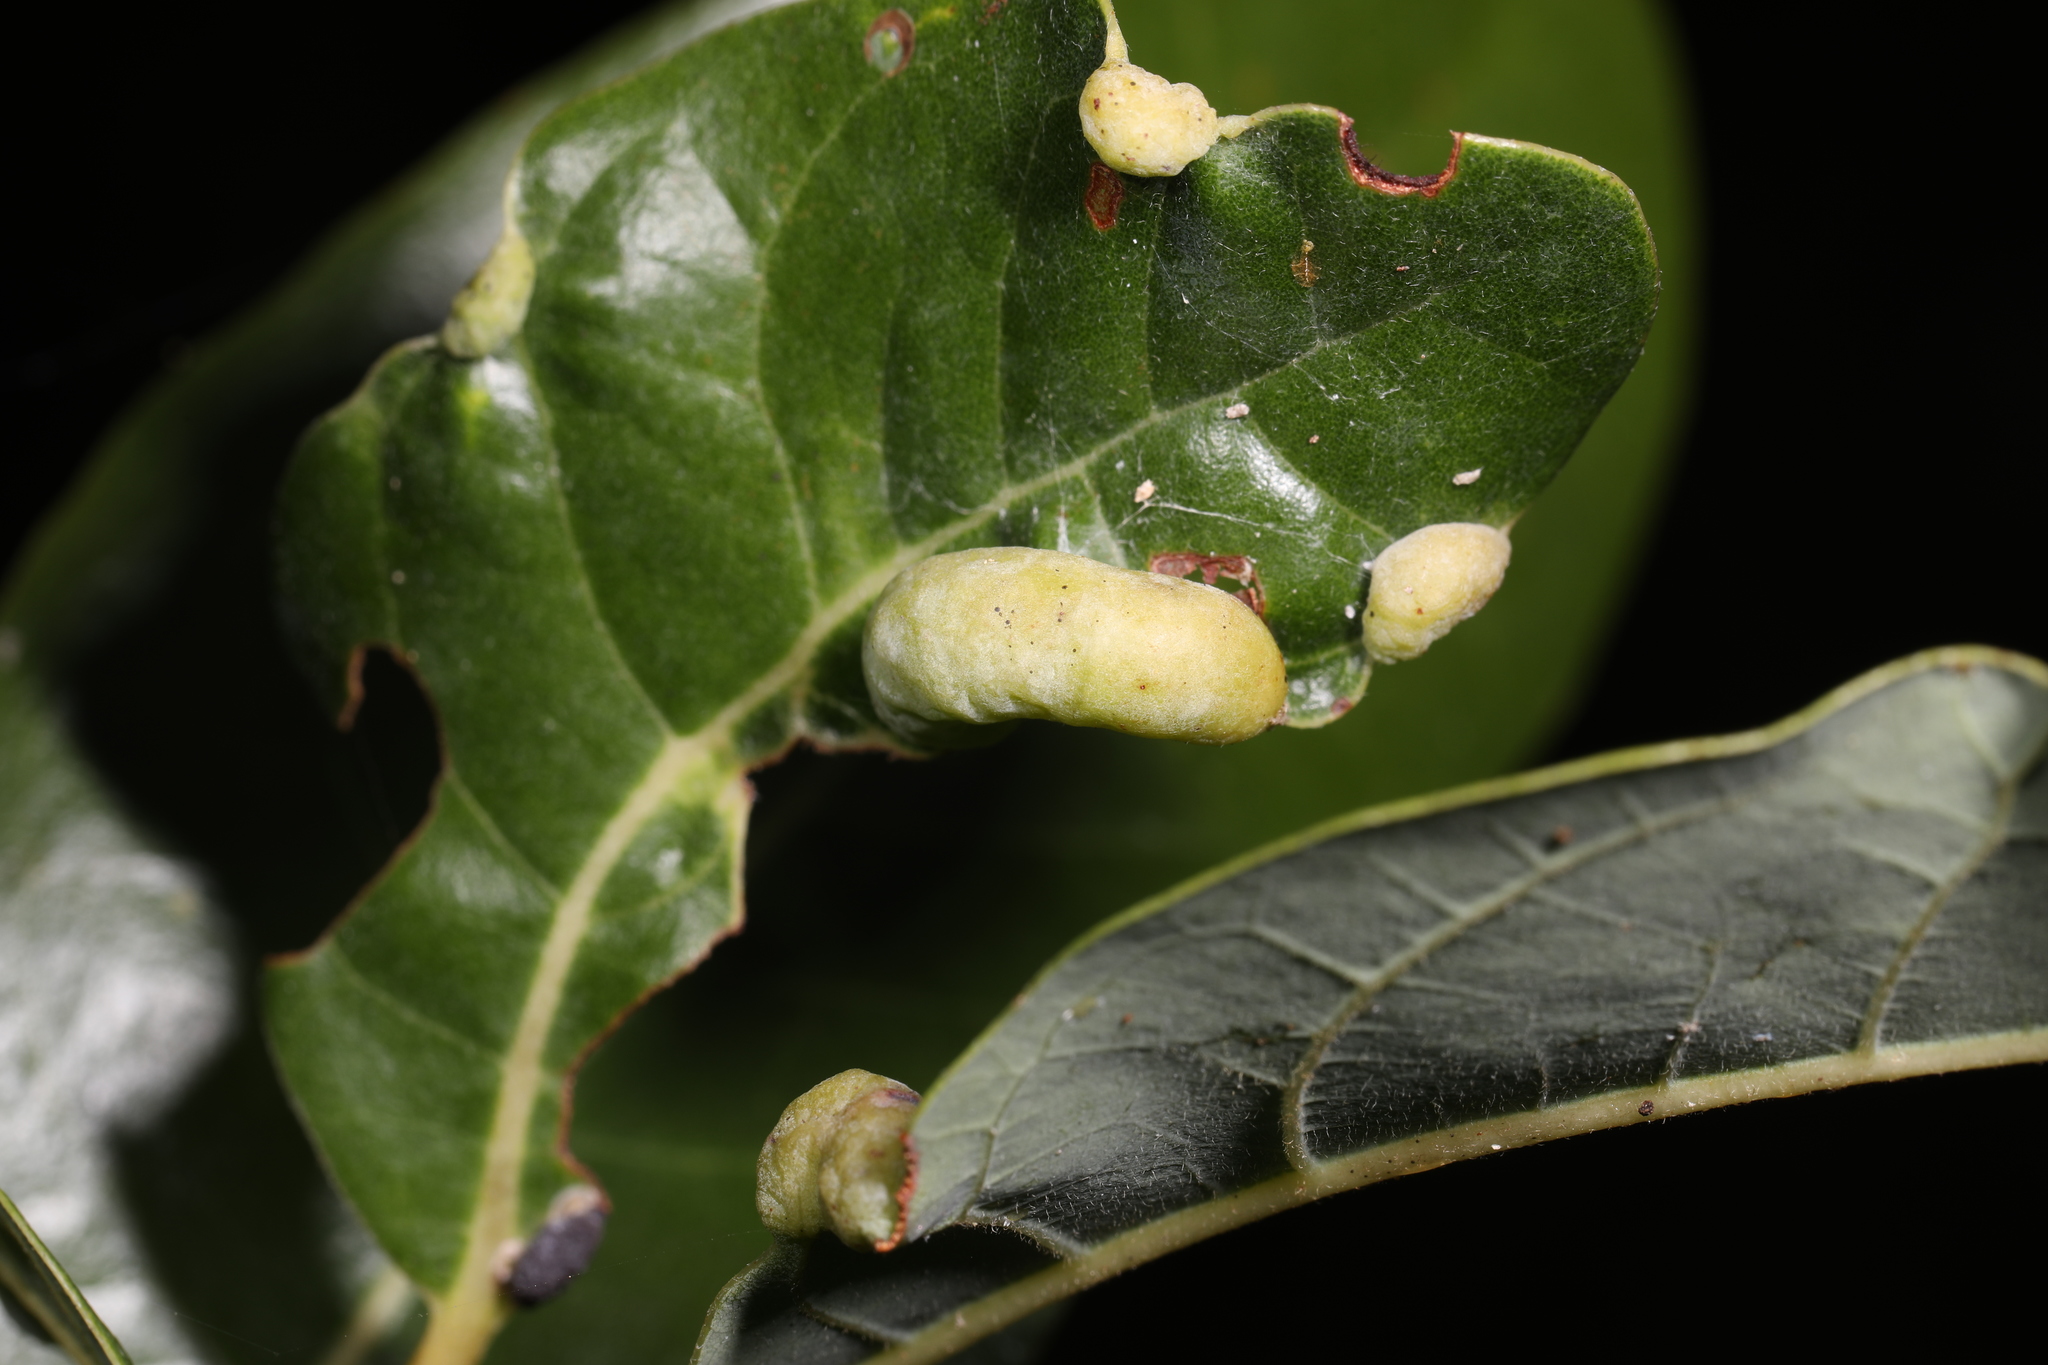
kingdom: Animalia
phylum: Arthropoda
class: Insecta
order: Hemiptera
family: Triozidae
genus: Trioza
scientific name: Trioza magnoliae
